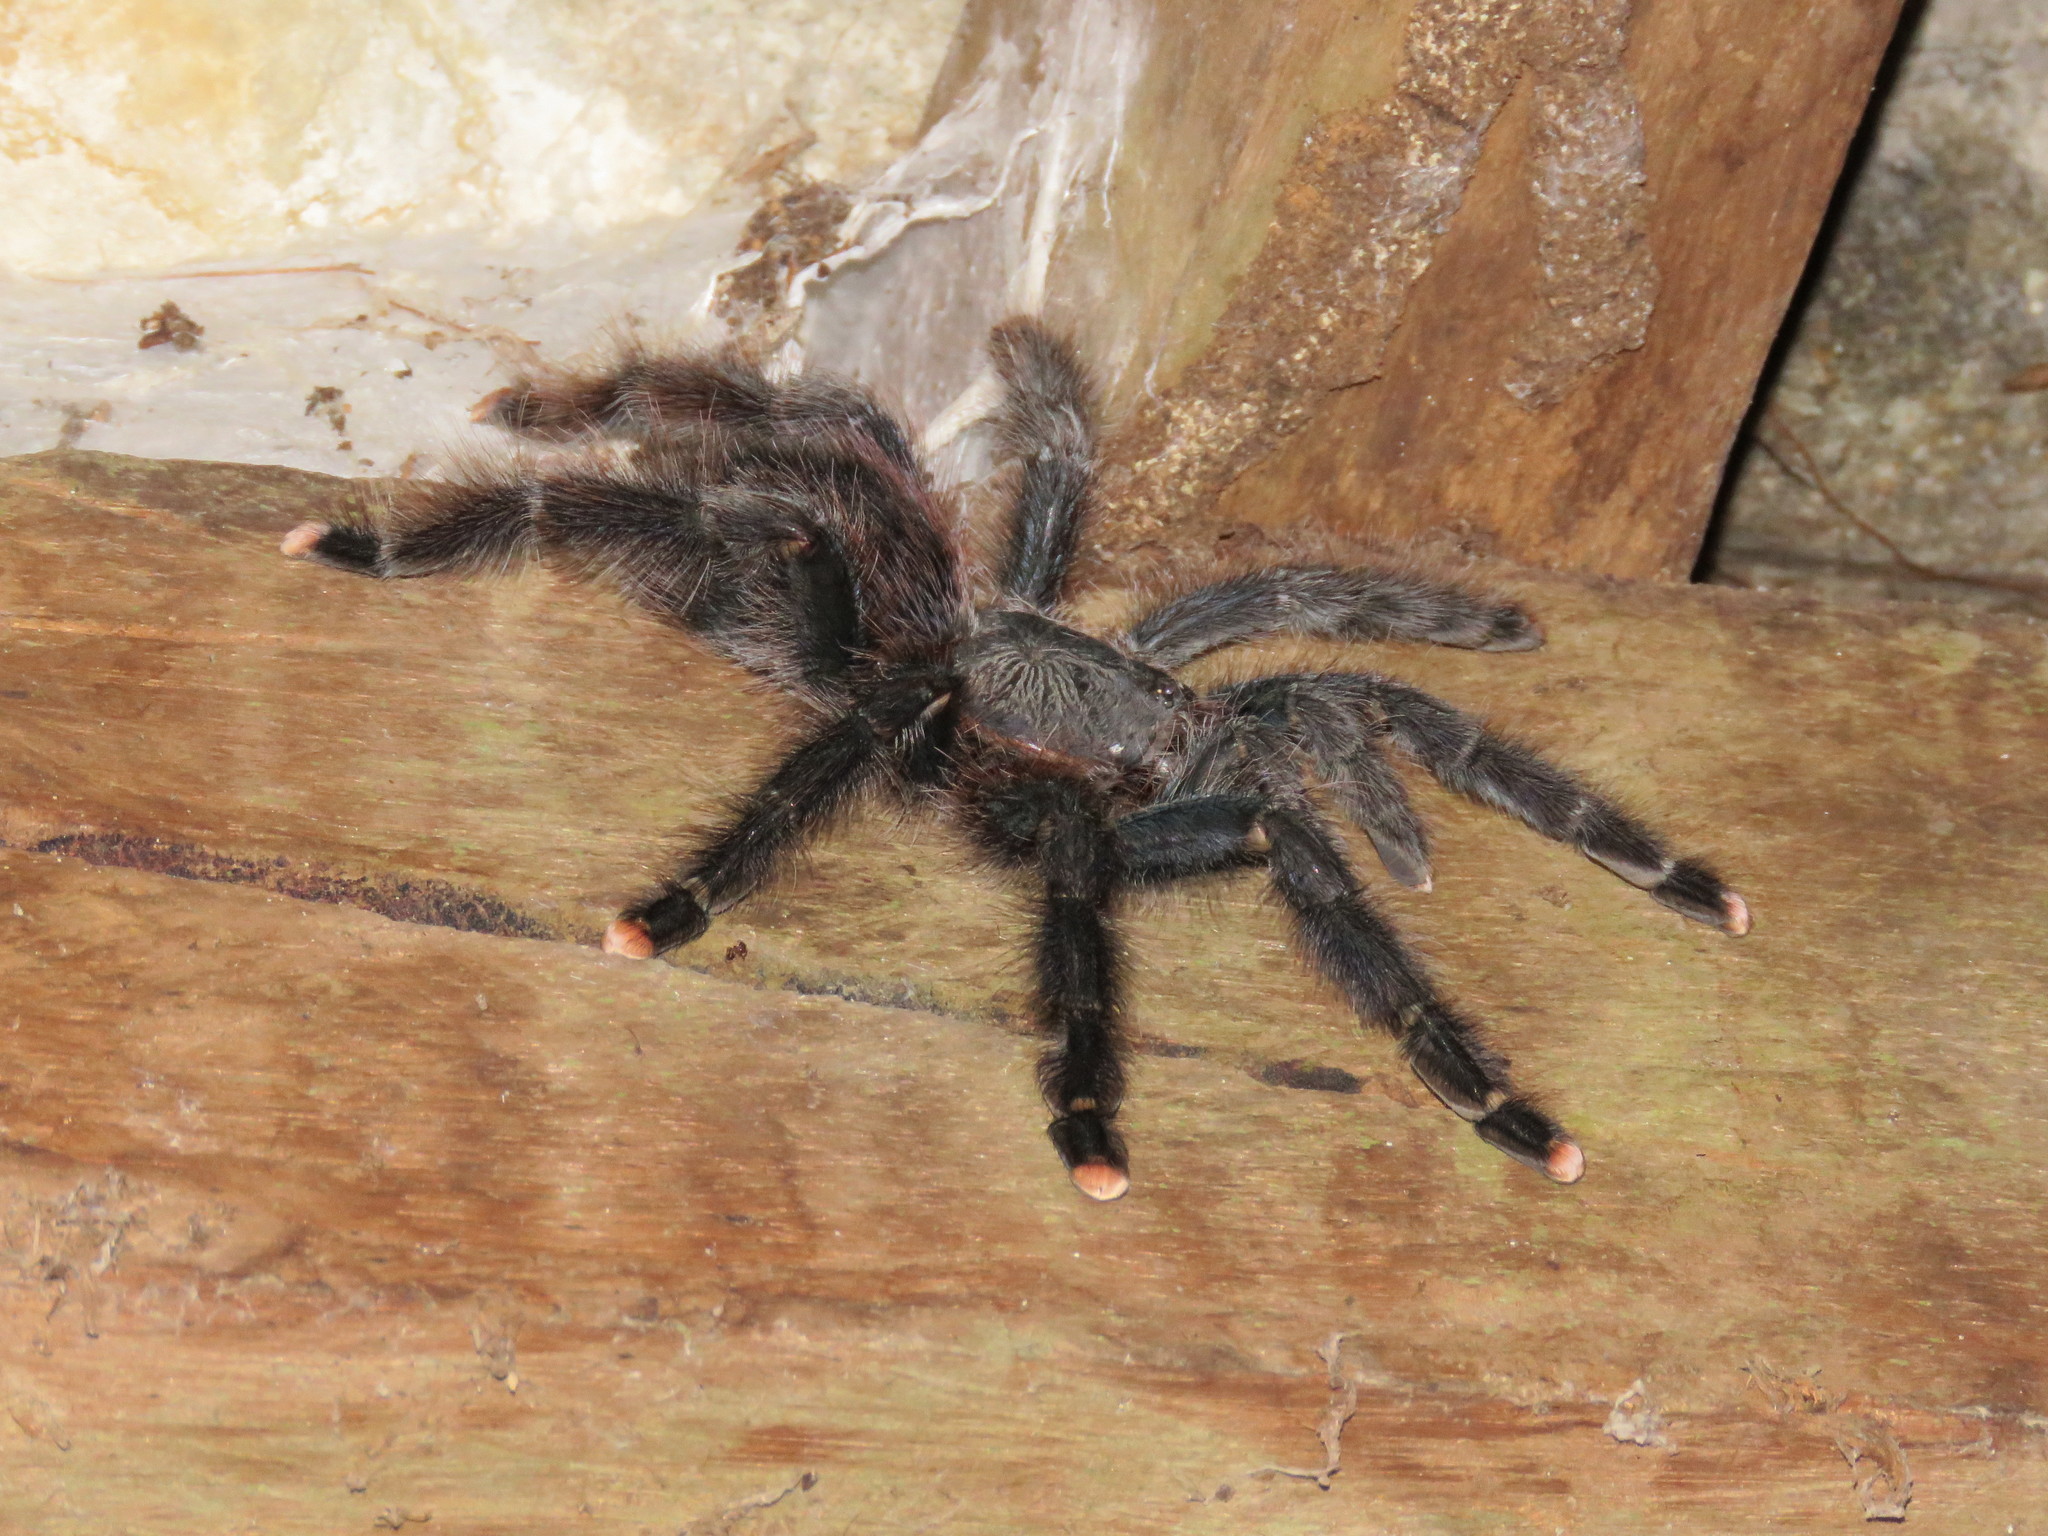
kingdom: Animalia
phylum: Arthropoda
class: Arachnida
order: Araneae
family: Theraphosidae
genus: Avicularia
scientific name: Avicularia avicularia
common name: Tarantula spiders
